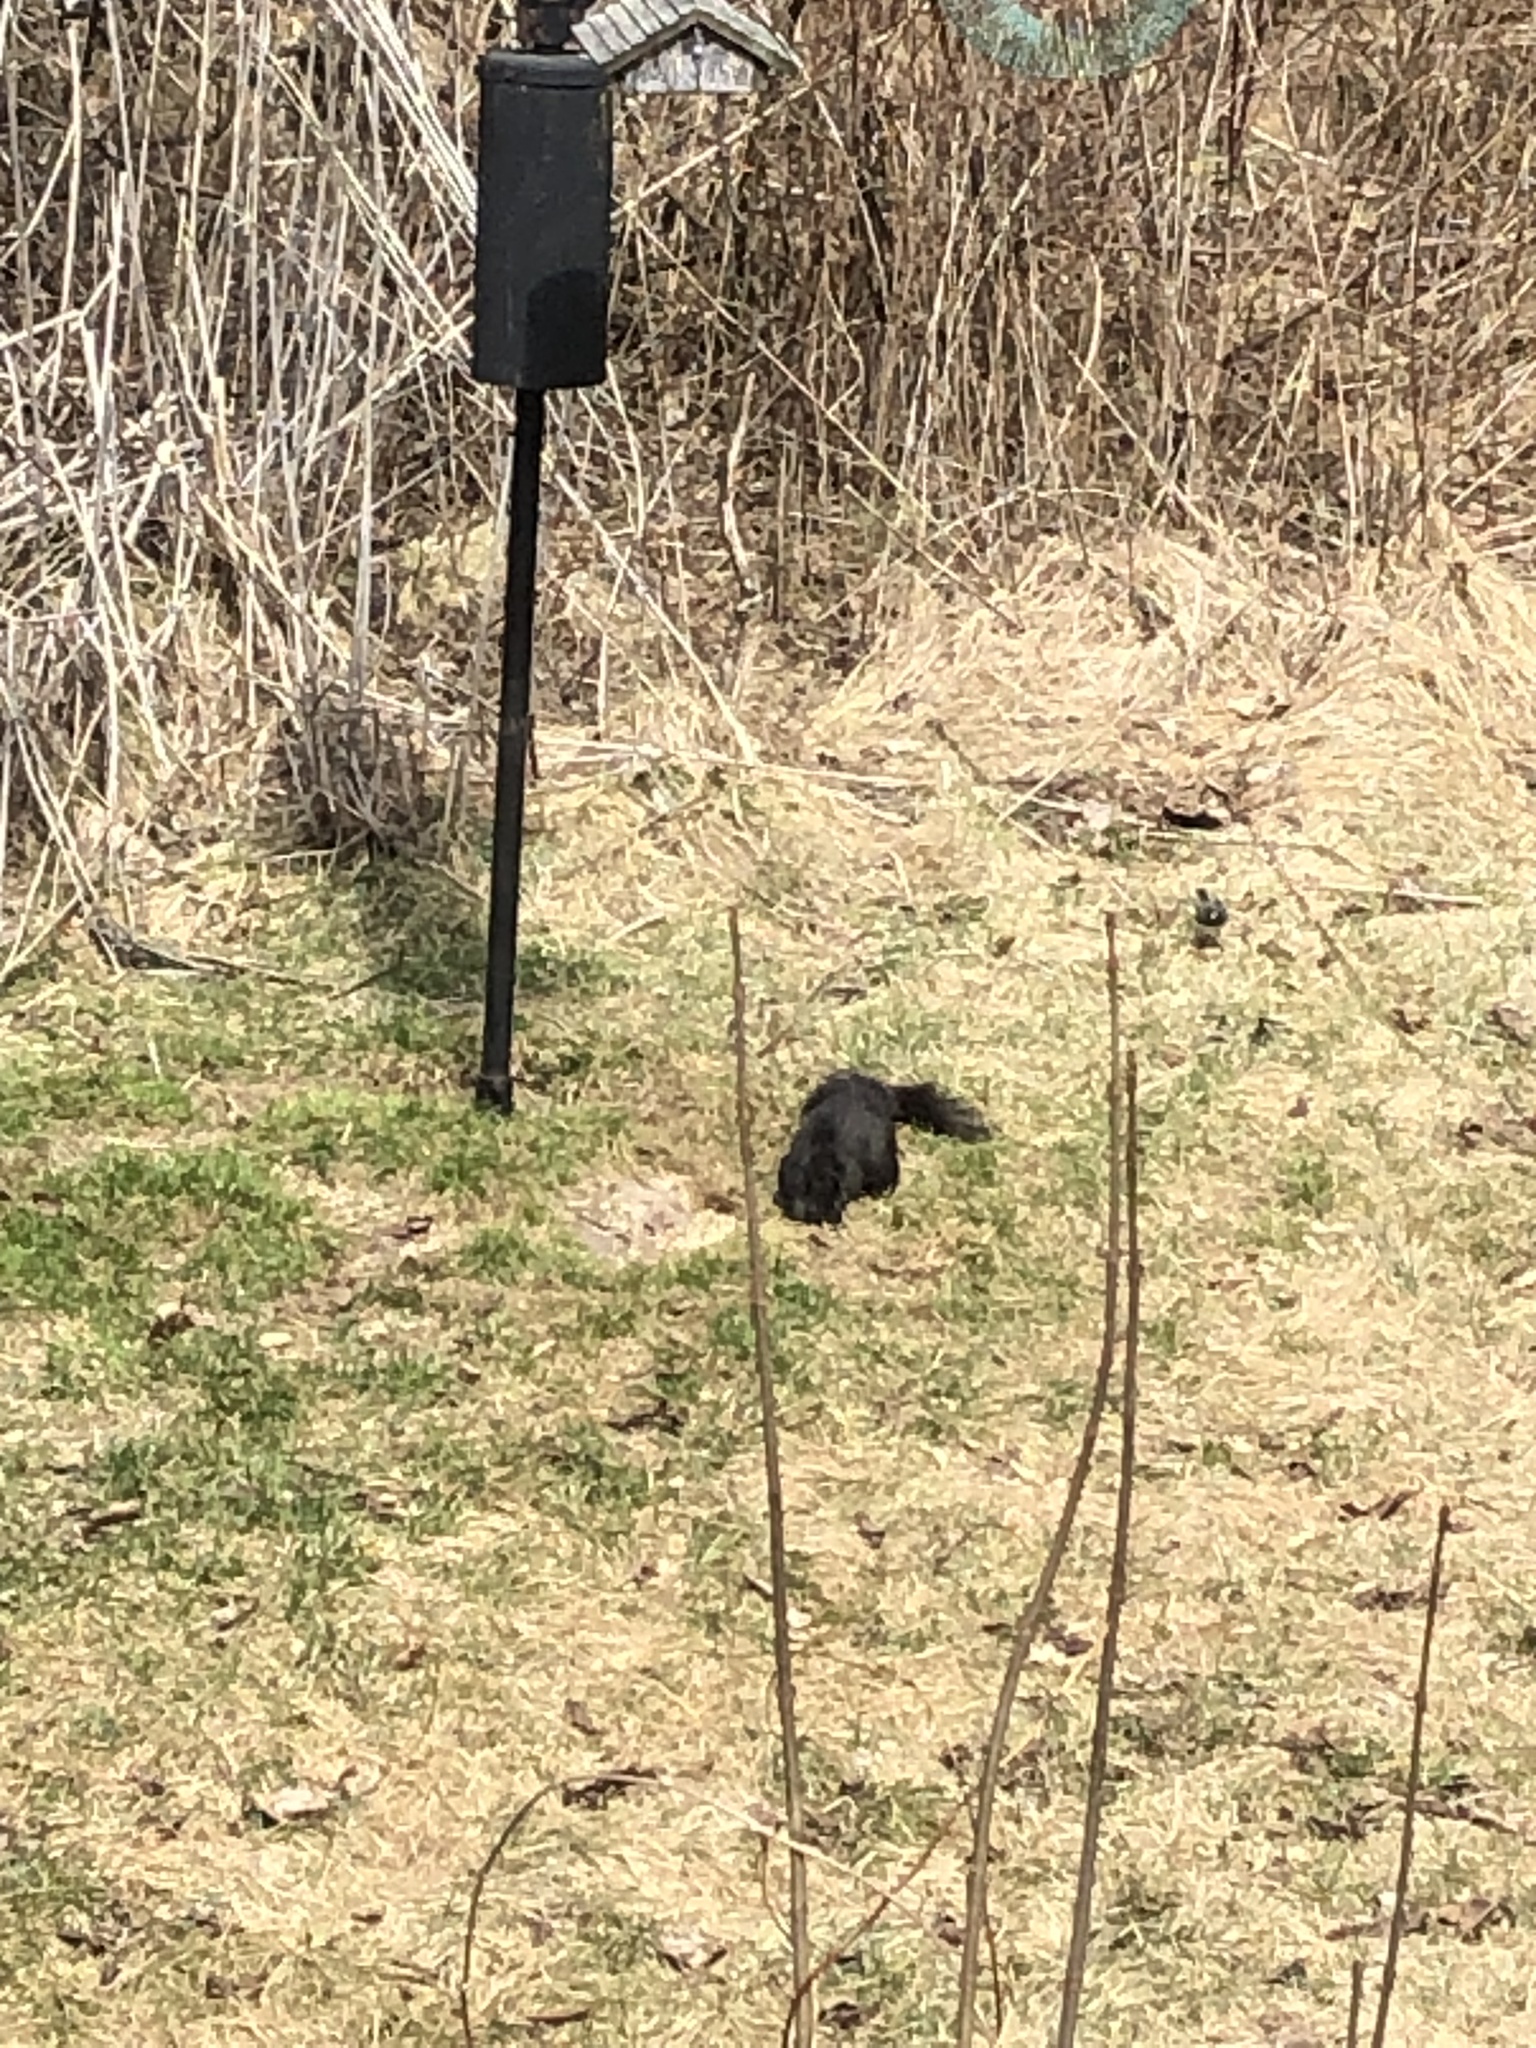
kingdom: Animalia
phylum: Chordata
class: Mammalia
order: Rodentia
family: Sciuridae
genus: Sciurus
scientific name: Sciurus carolinensis
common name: Eastern gray squirrel
